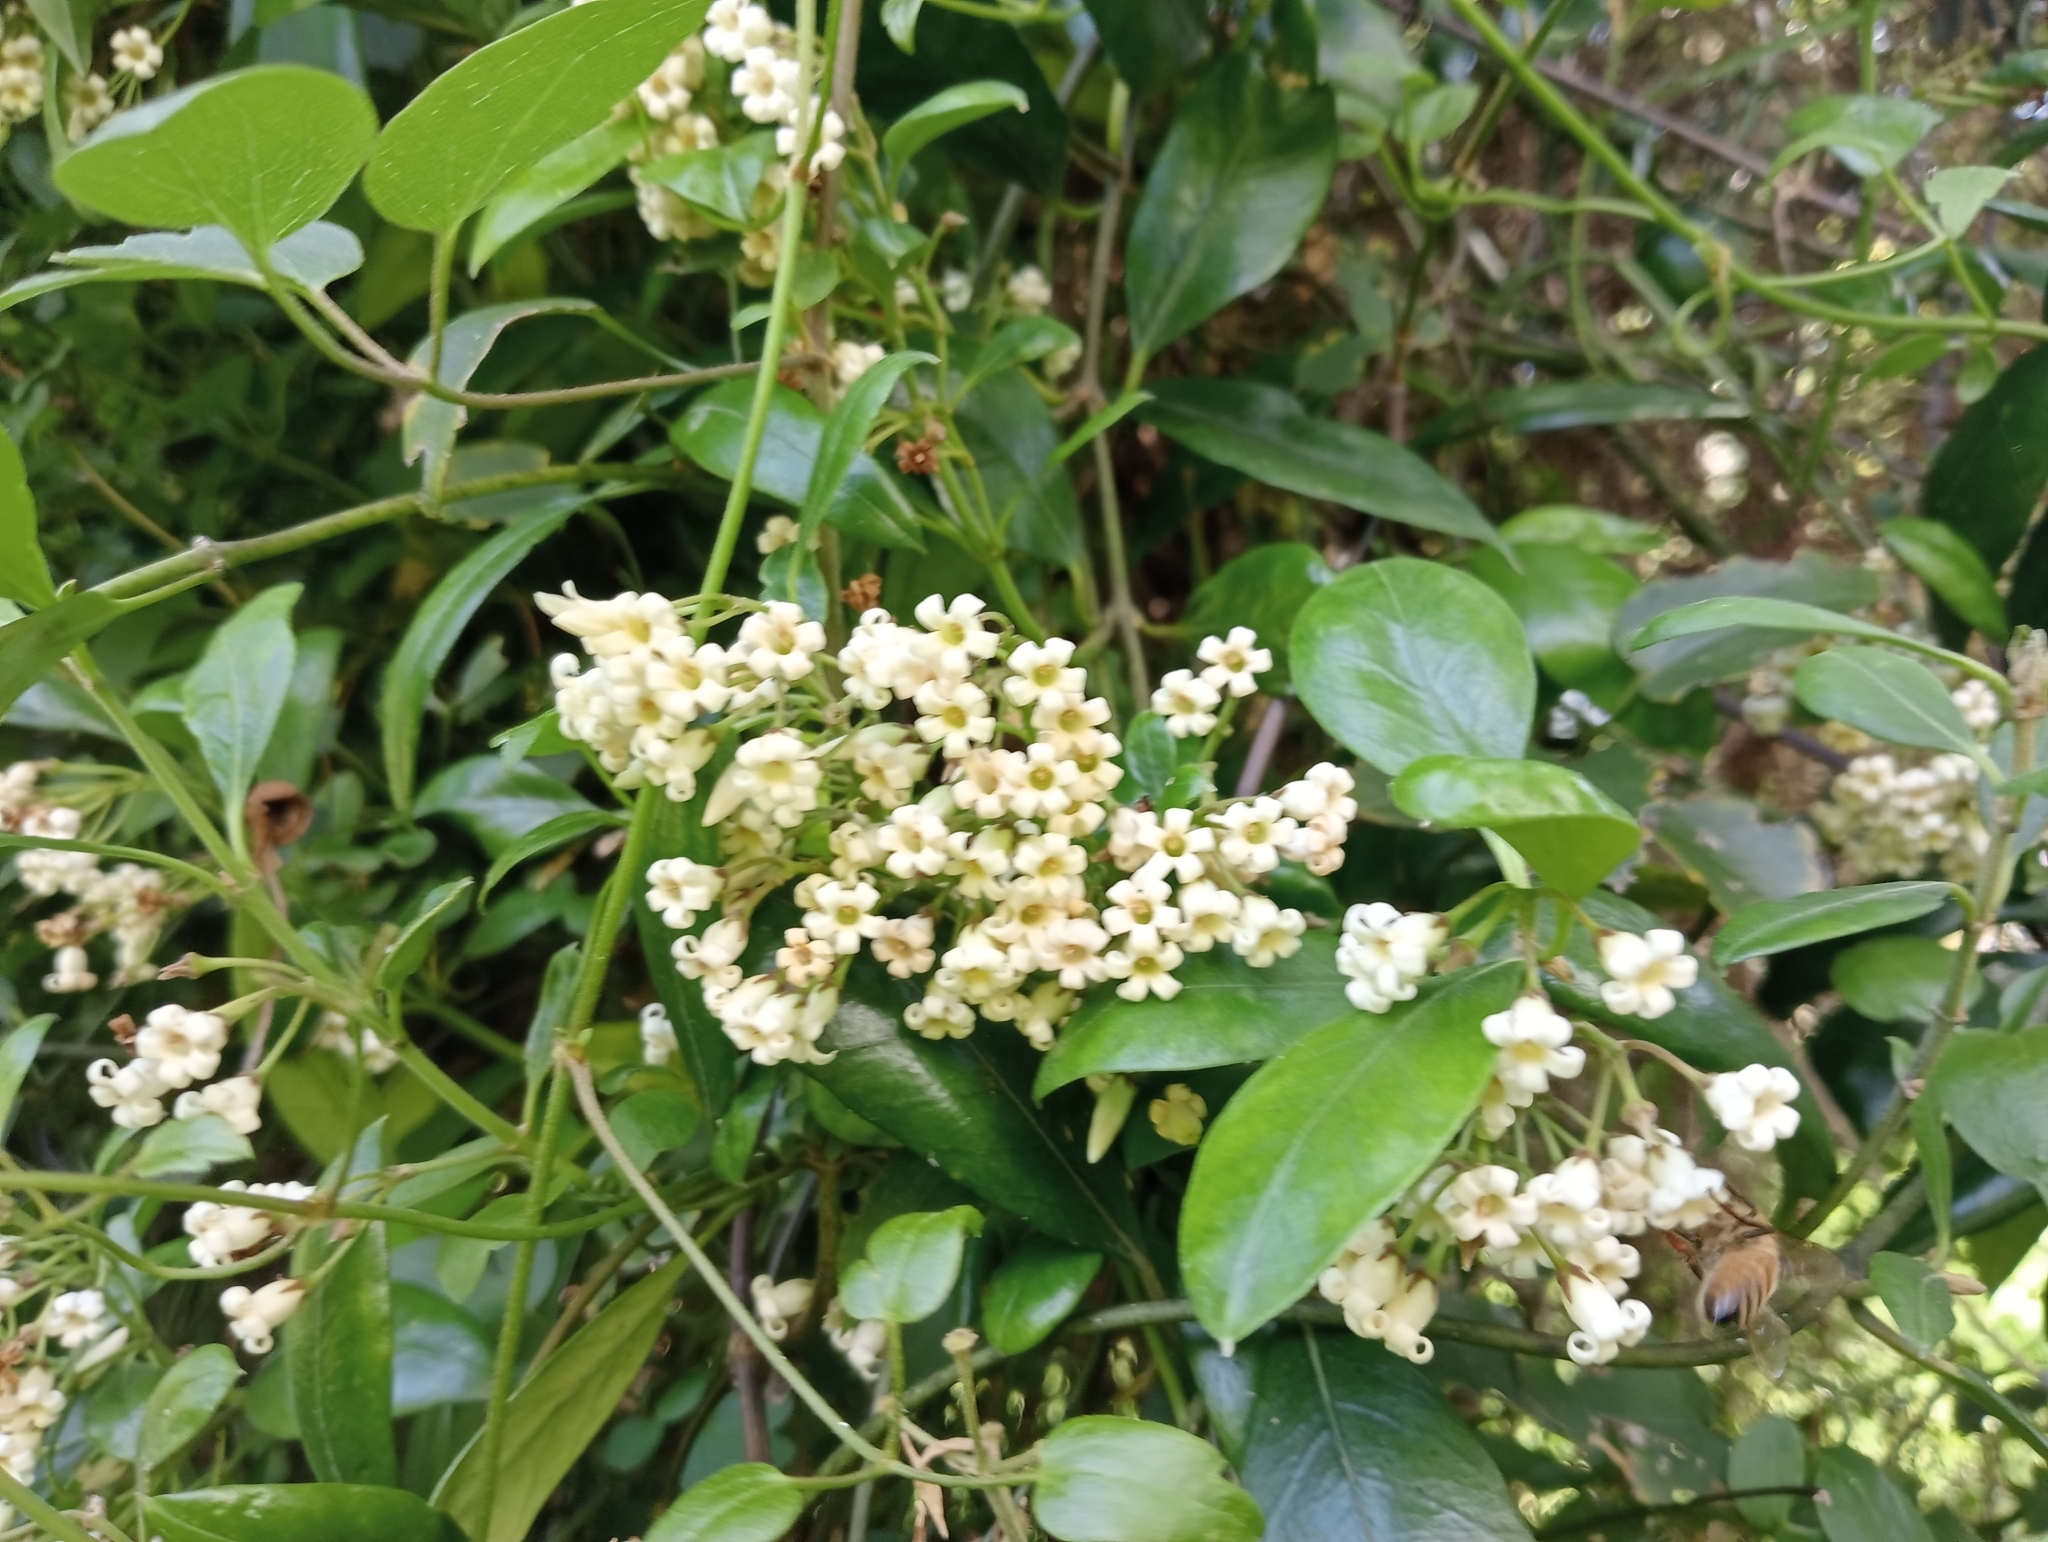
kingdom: Plantae
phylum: Tracheophyta
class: Magnoliopsida
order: Gentianales
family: Apocynaceae
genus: Parsonsia
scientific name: Parsonsia heterophylla
